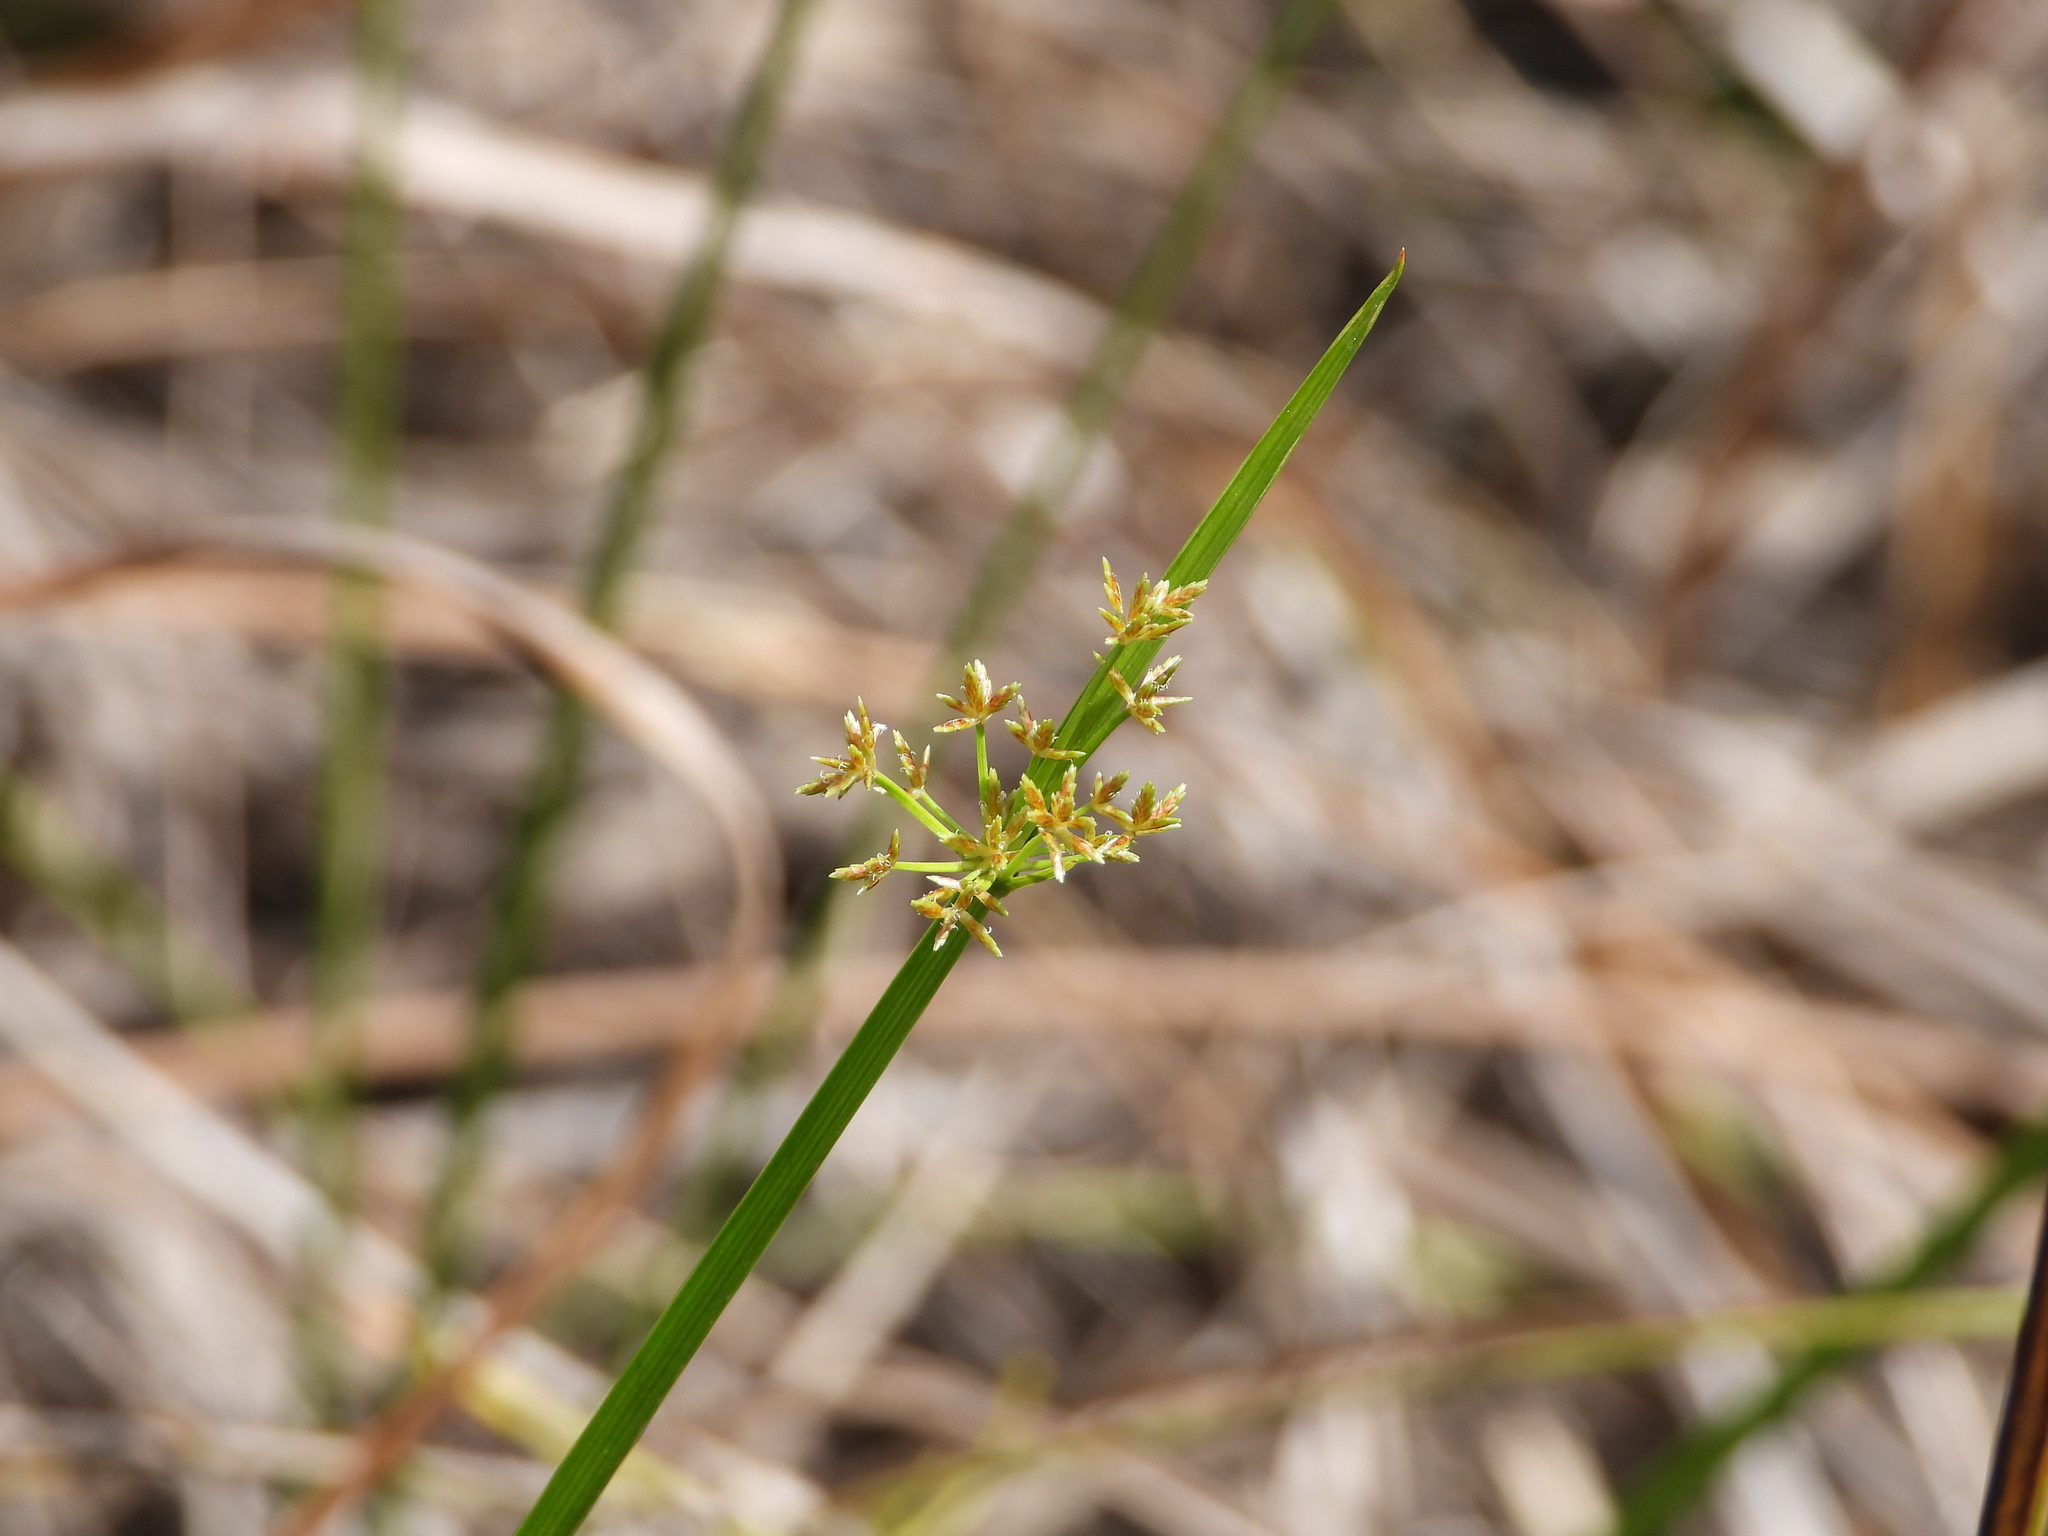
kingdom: Plantae
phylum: Tracheophyta
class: Liliopsida
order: Poales
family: Cyperaceae
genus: Cyperus
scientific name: Cyperus haspan
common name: Haspan flatsedge
